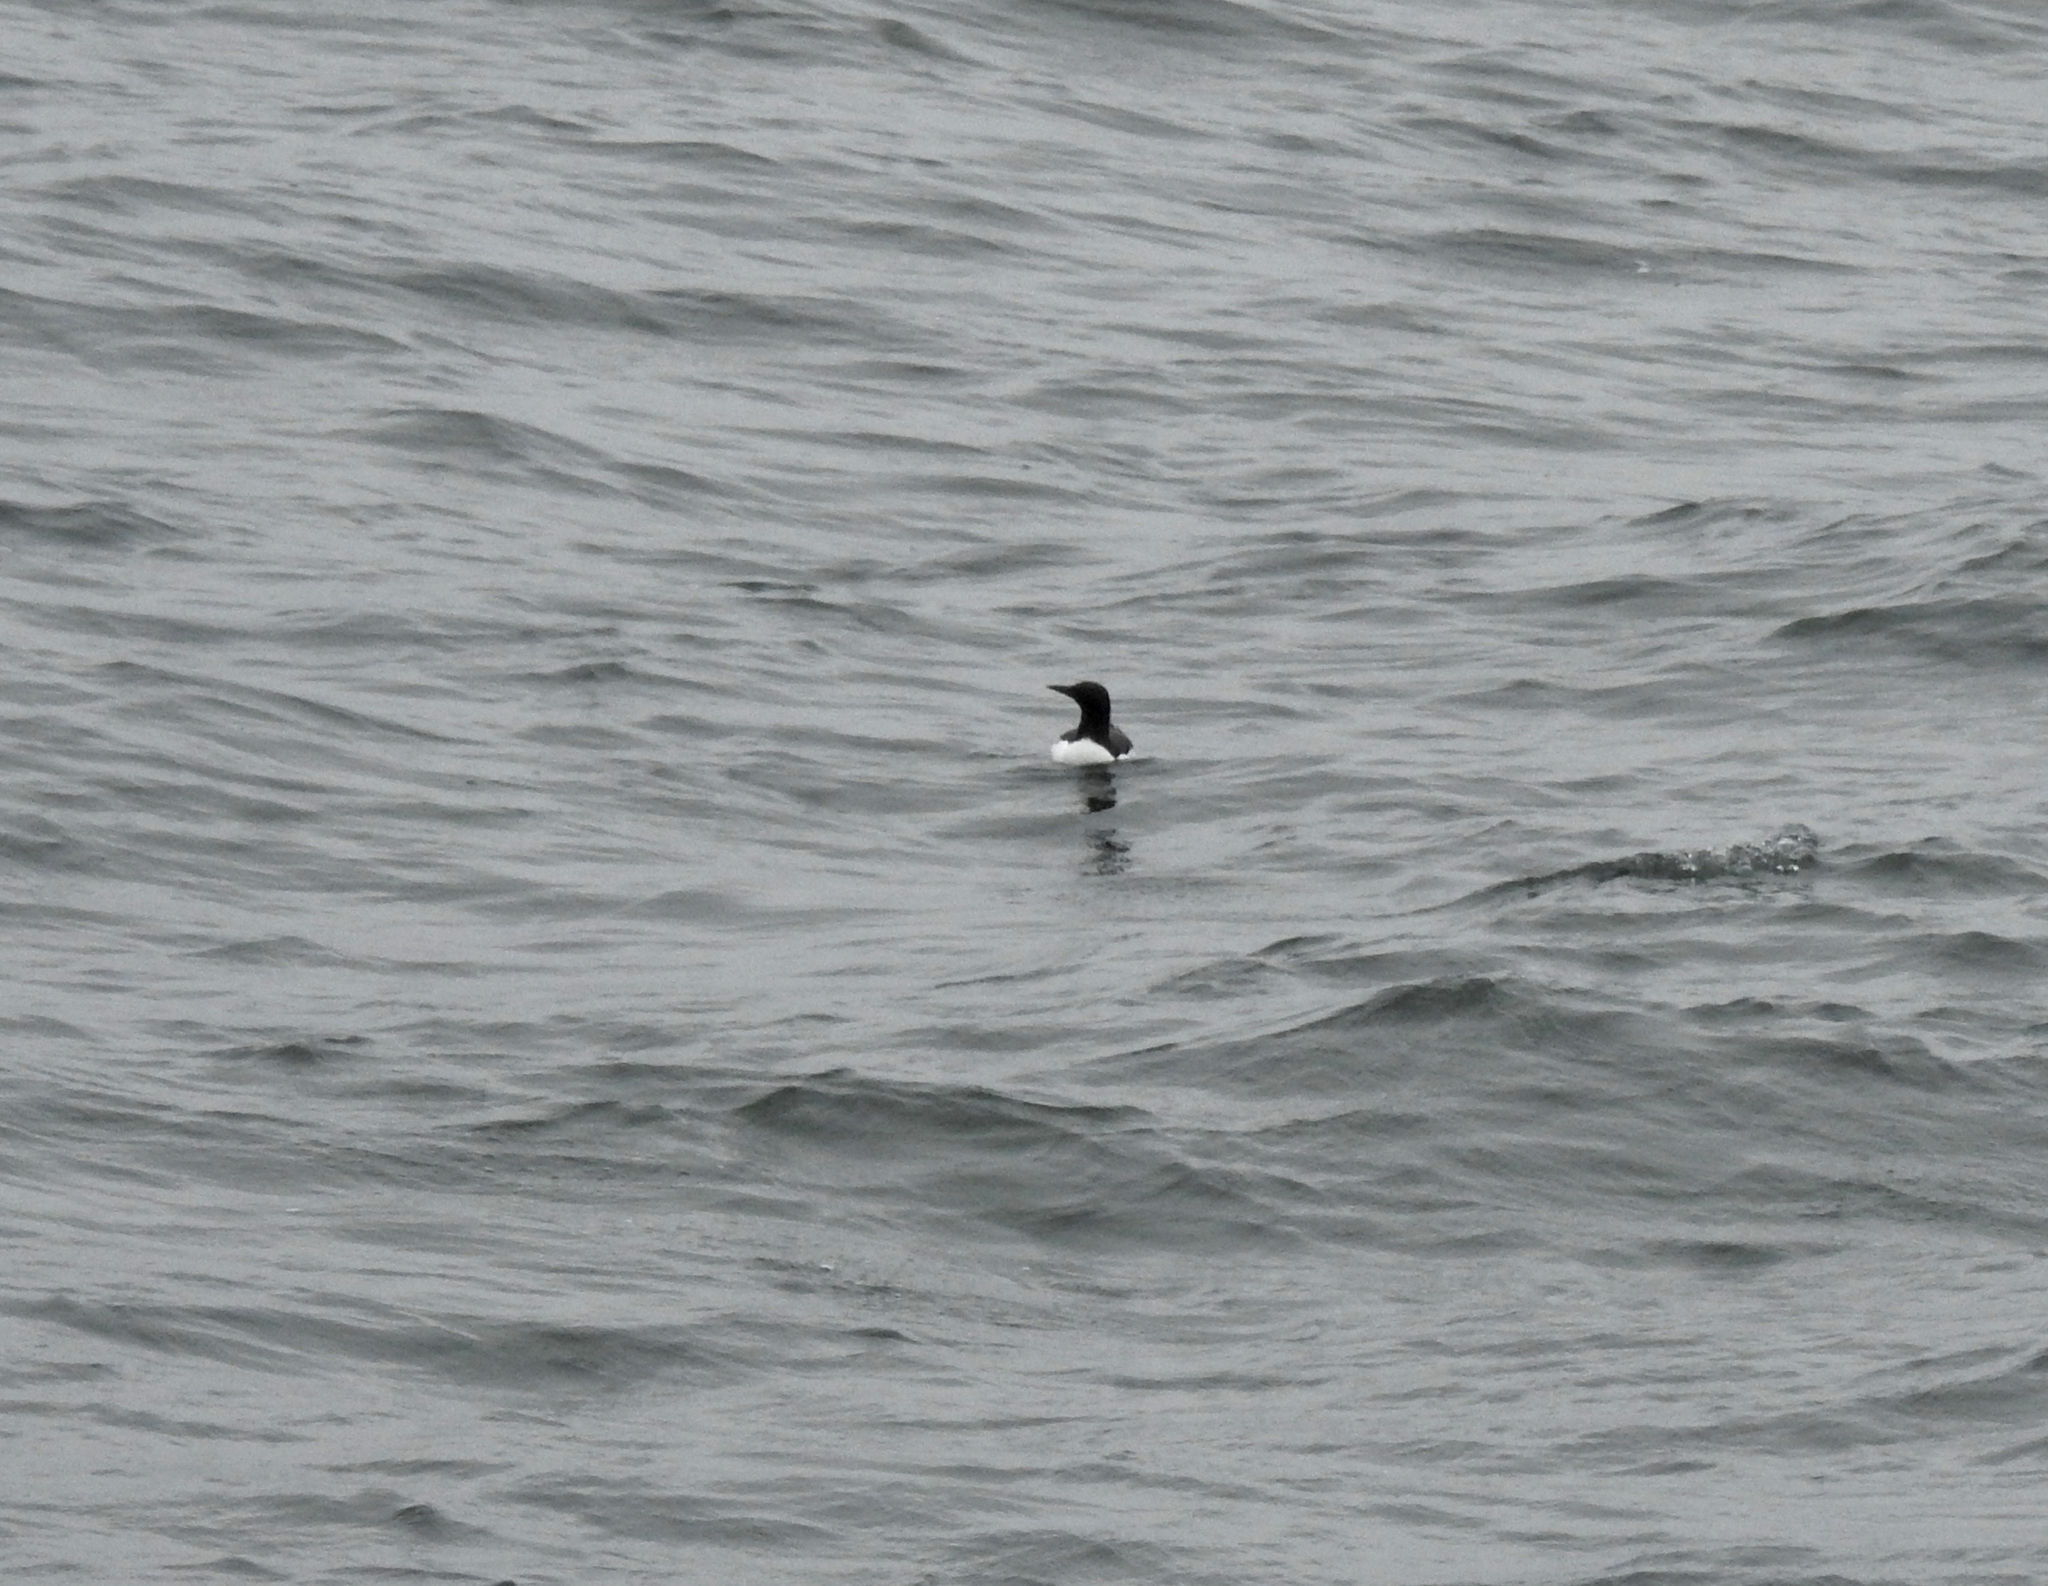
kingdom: Animalia
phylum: Chordata
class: Aves
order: Charadriiformes
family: Alcidae
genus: Uria
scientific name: Uria aalge
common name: Common murre
